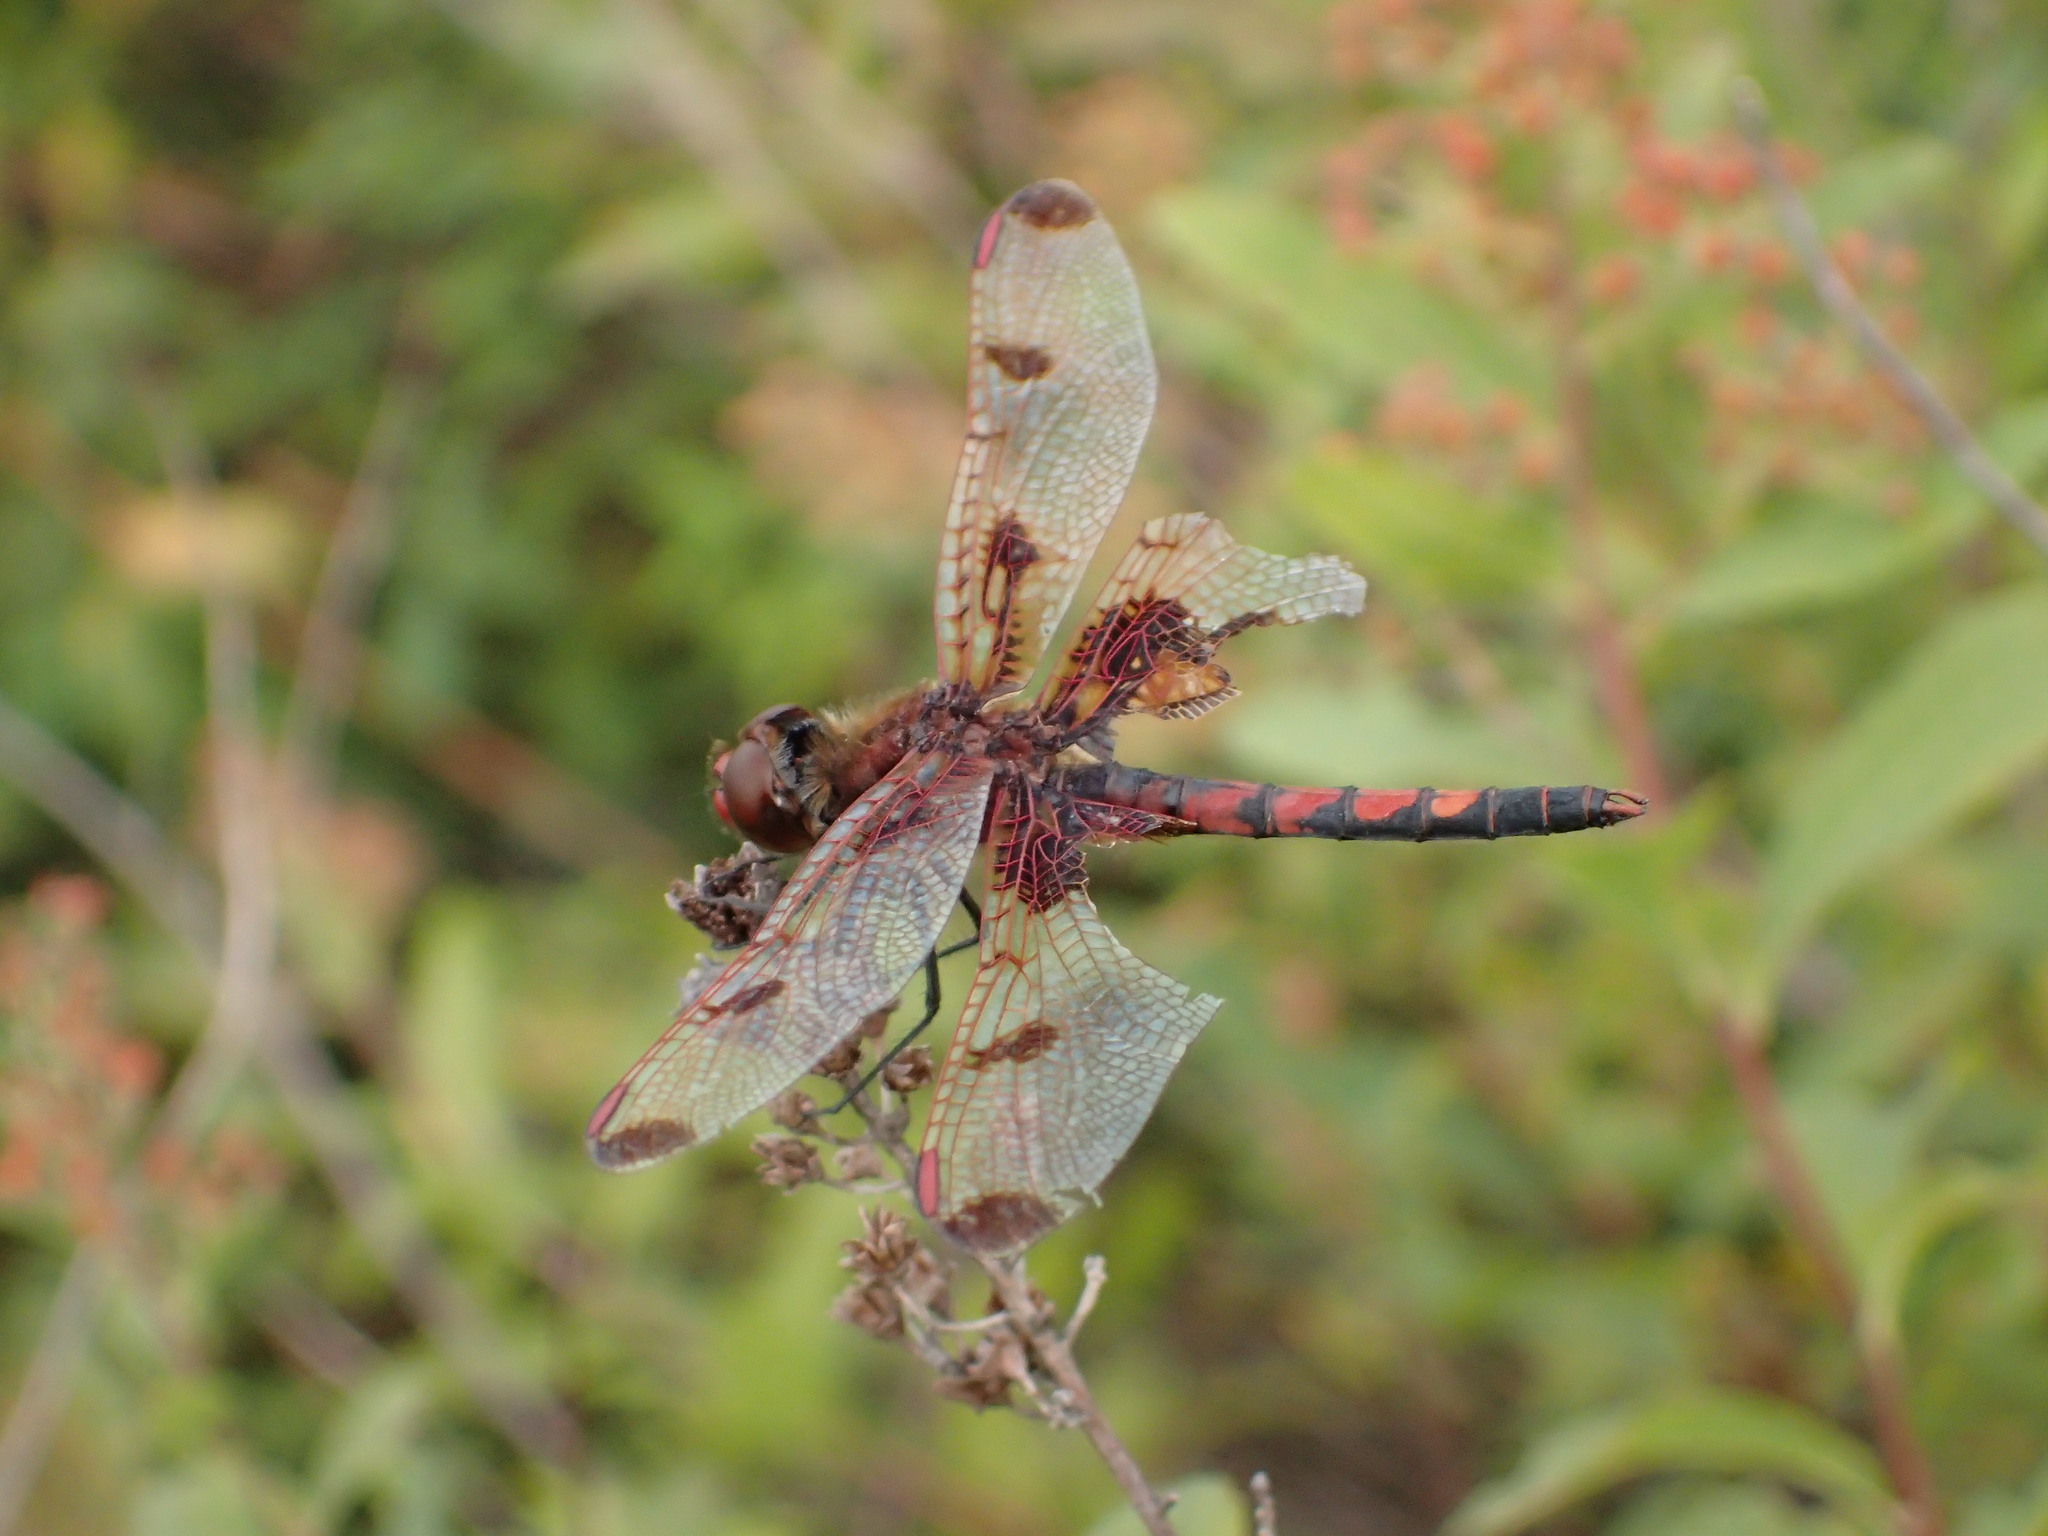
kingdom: Animalia
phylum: Arthropoda
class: Insecta
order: Odonata
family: Libellulidae
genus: Celithemis
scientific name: Celithemis elisa
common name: Calico pennant
